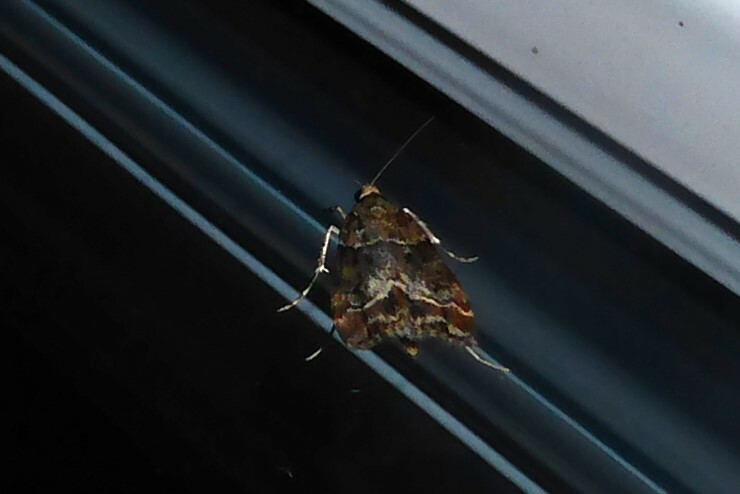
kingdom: Animalia
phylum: Arthropoda
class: Insecta
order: Lepidoptera
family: Crambidae
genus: Eudonia
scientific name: Eudonia legnota
